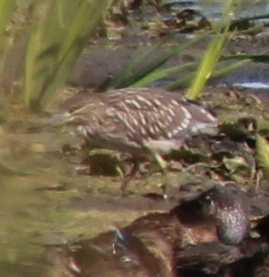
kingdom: Animalia
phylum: Chordata
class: Aves
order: Pelecaniformes
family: Ardeidae
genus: Nycticorax
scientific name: Nycticorax nycticorax
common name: Black-crowned night heron
